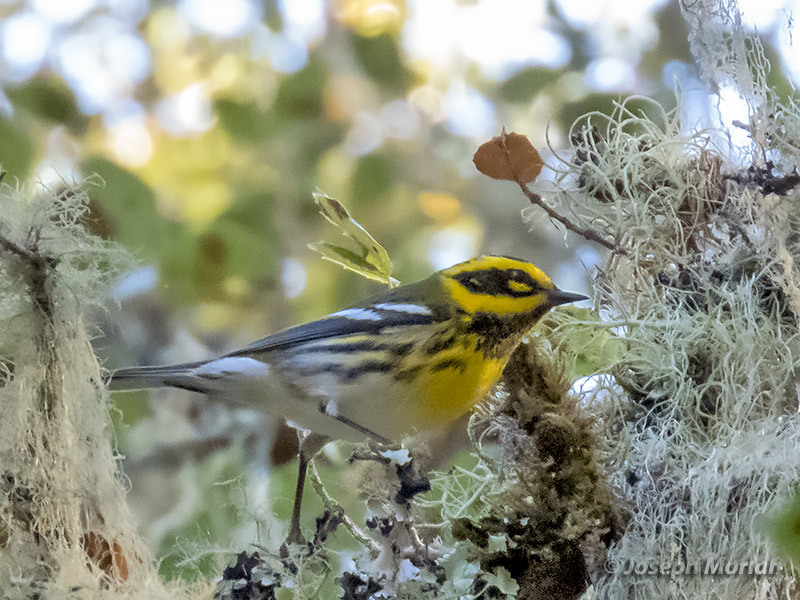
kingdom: Animalia
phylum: Chordata
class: Aves
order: Passeriformes
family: Parulidae
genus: Setophaga
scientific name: Setophaga townsendi
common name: Townsend's warbler
